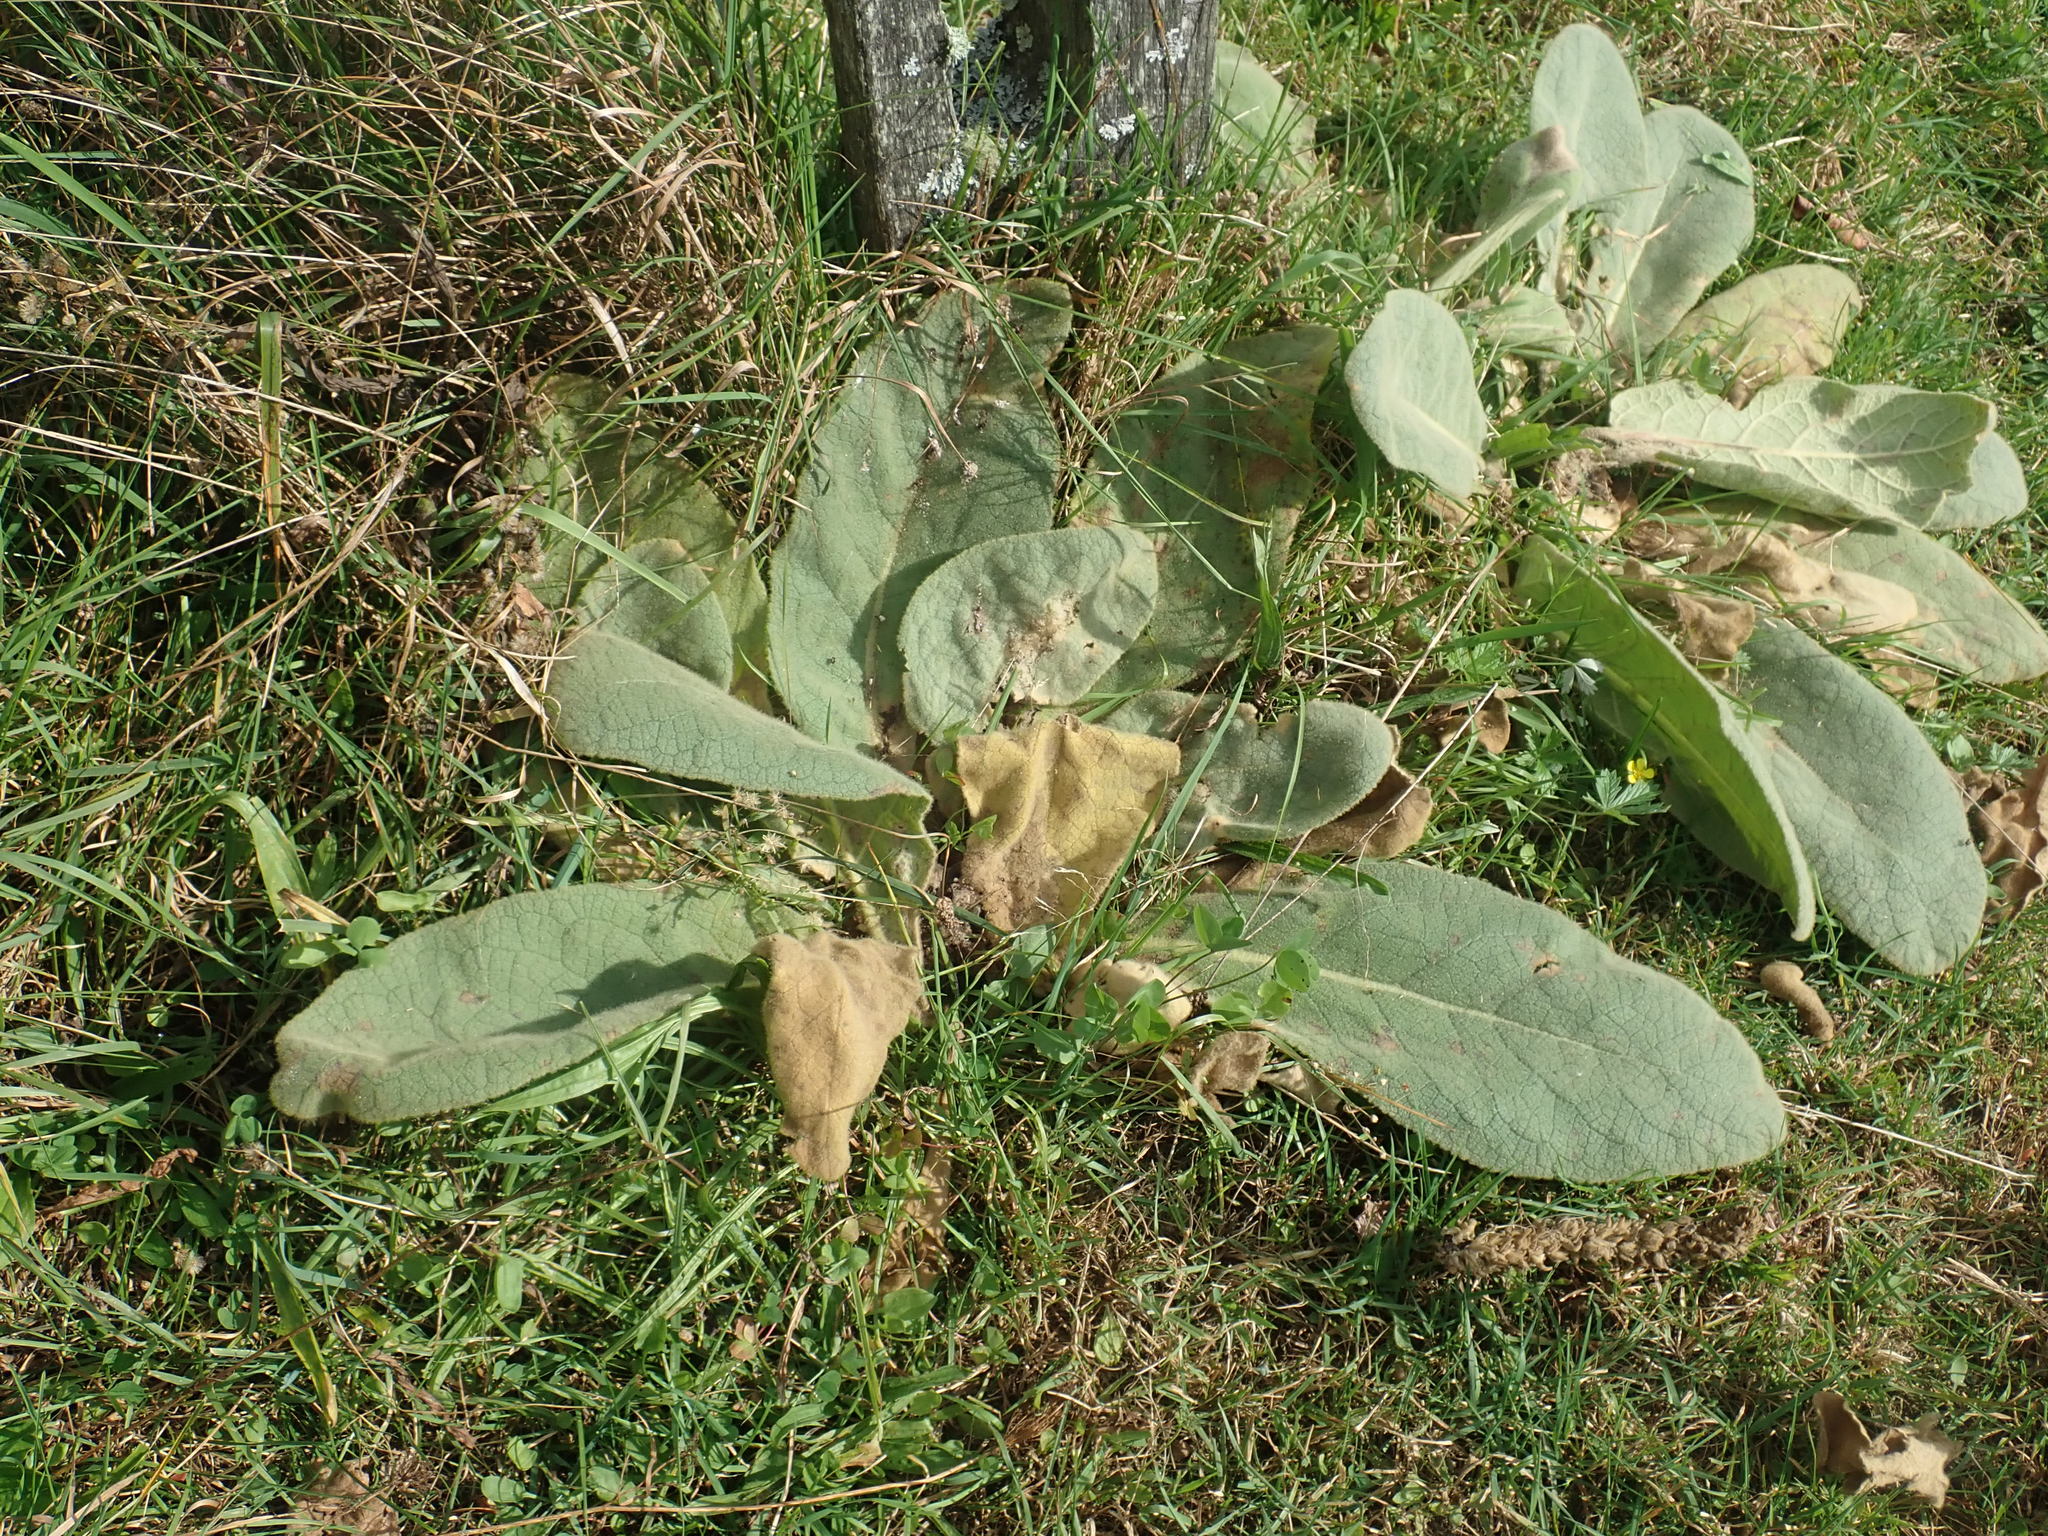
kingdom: Plantae
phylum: Tracheophyta
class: Magnoliopsida
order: Lamiales
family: Scrophulariaceae
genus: Verbascum
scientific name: Verbascum thapsus
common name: Common mullein
